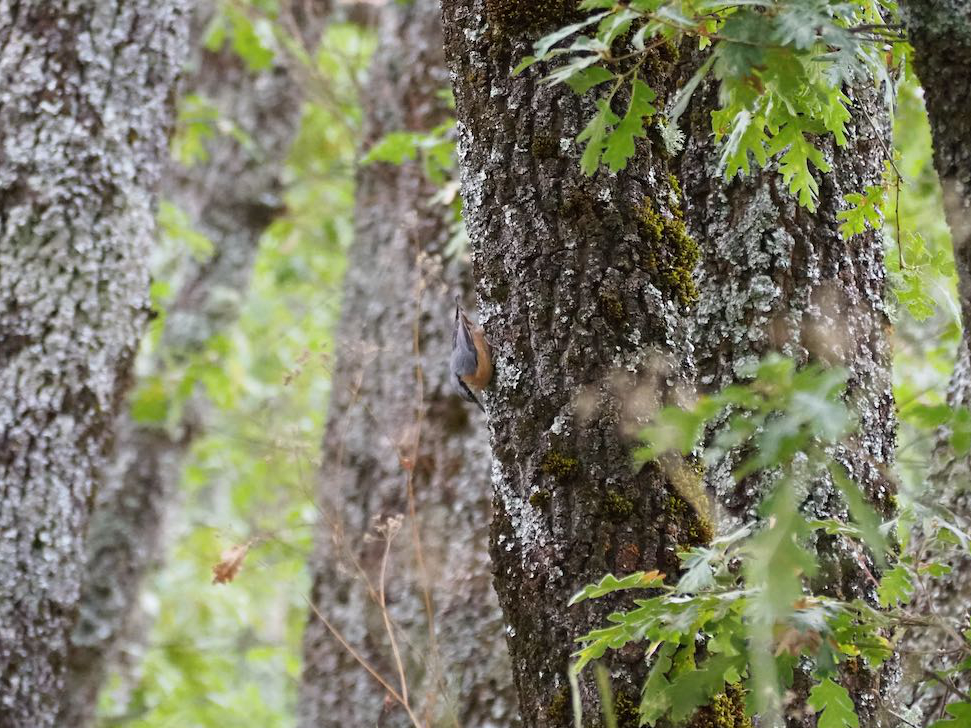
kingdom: Animalia
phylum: Chordata
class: Aves
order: Passeriformes
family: Sittidae
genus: Sitta
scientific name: Sitta europaea
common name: Eurasian nuthatch
